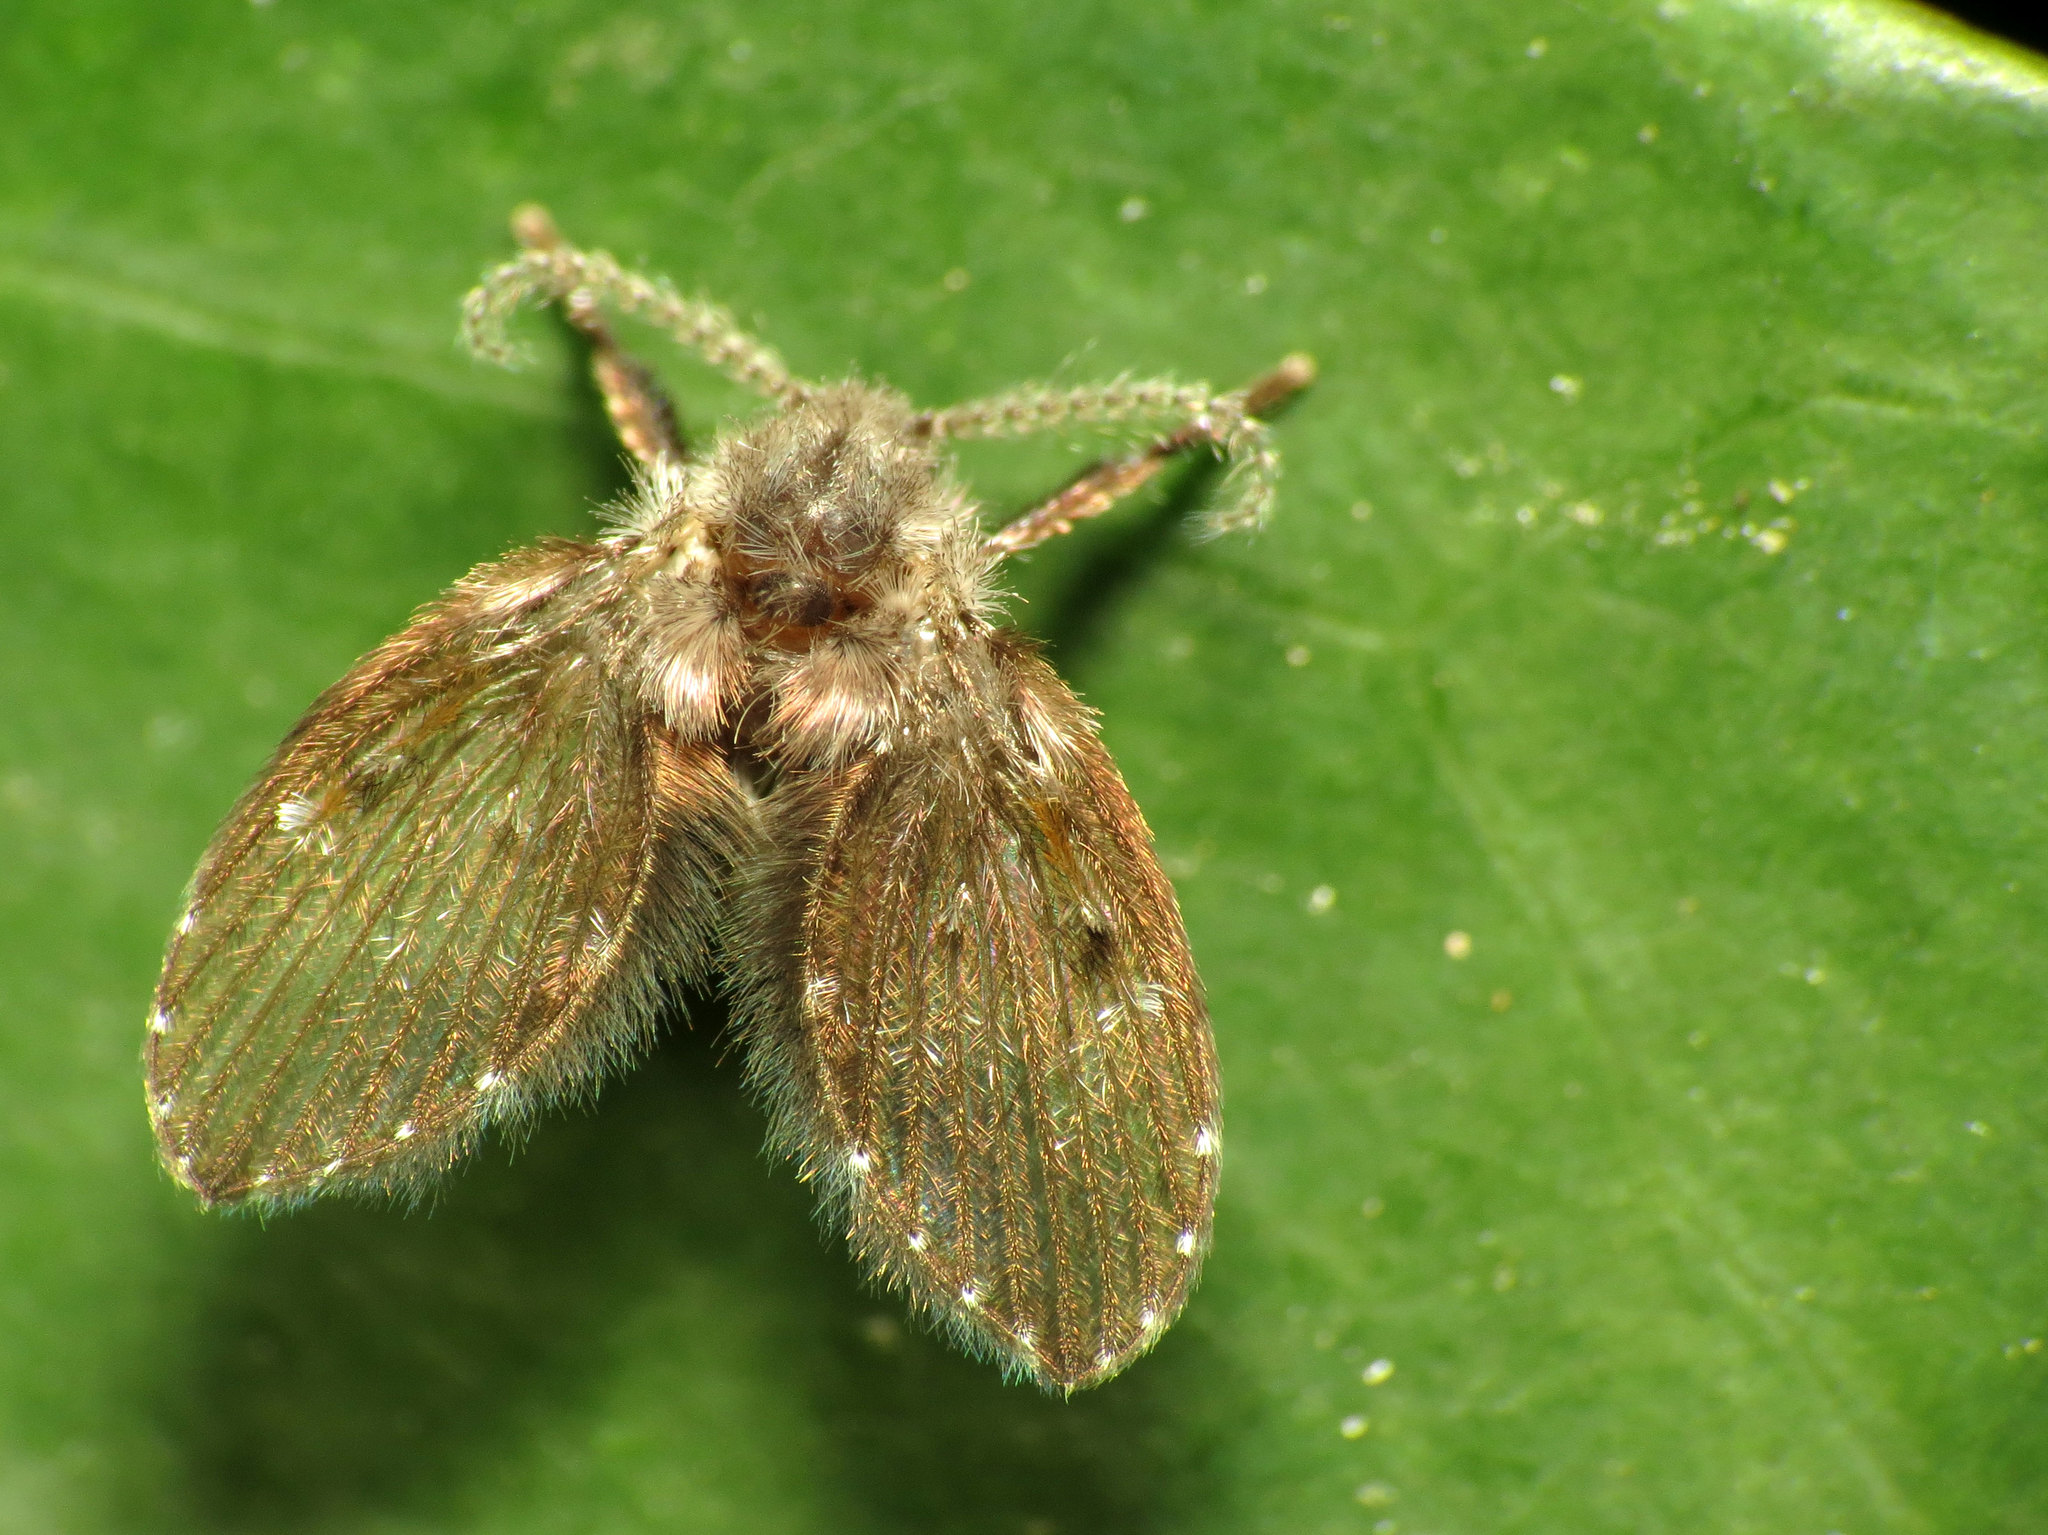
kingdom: Animalia
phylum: Arthropoda
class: Insecta
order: Diptera
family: Psychodidae
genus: Clogmia
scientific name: Clogmia albipunctatus
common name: White-spotted moth fly
